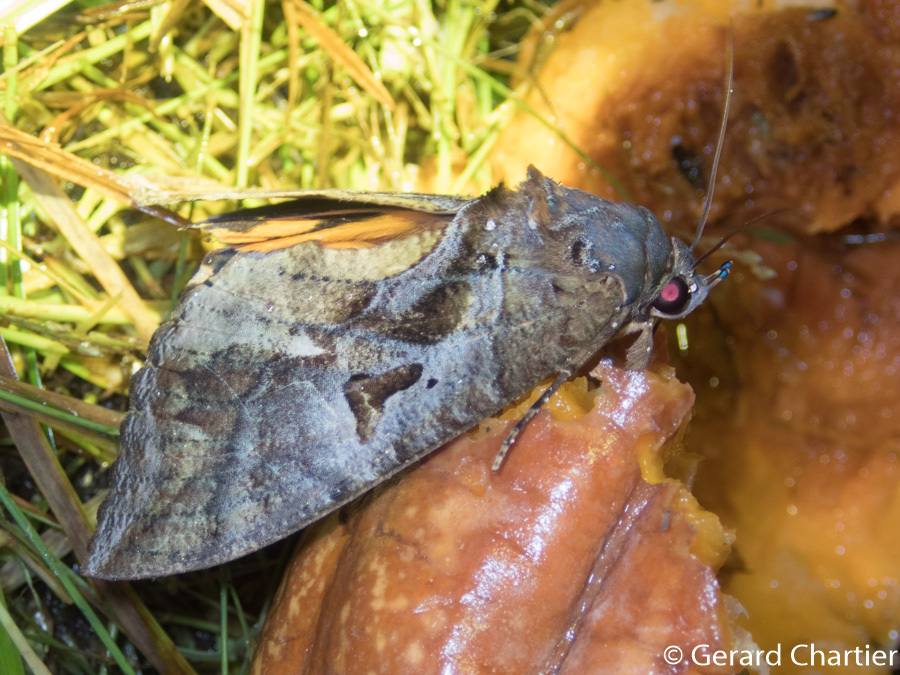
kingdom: Animalia
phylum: Arthropoda
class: Insecta
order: Lepidoptera
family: Erebidae
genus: Eudocima
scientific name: Eudocima phalonia
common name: Wasp
